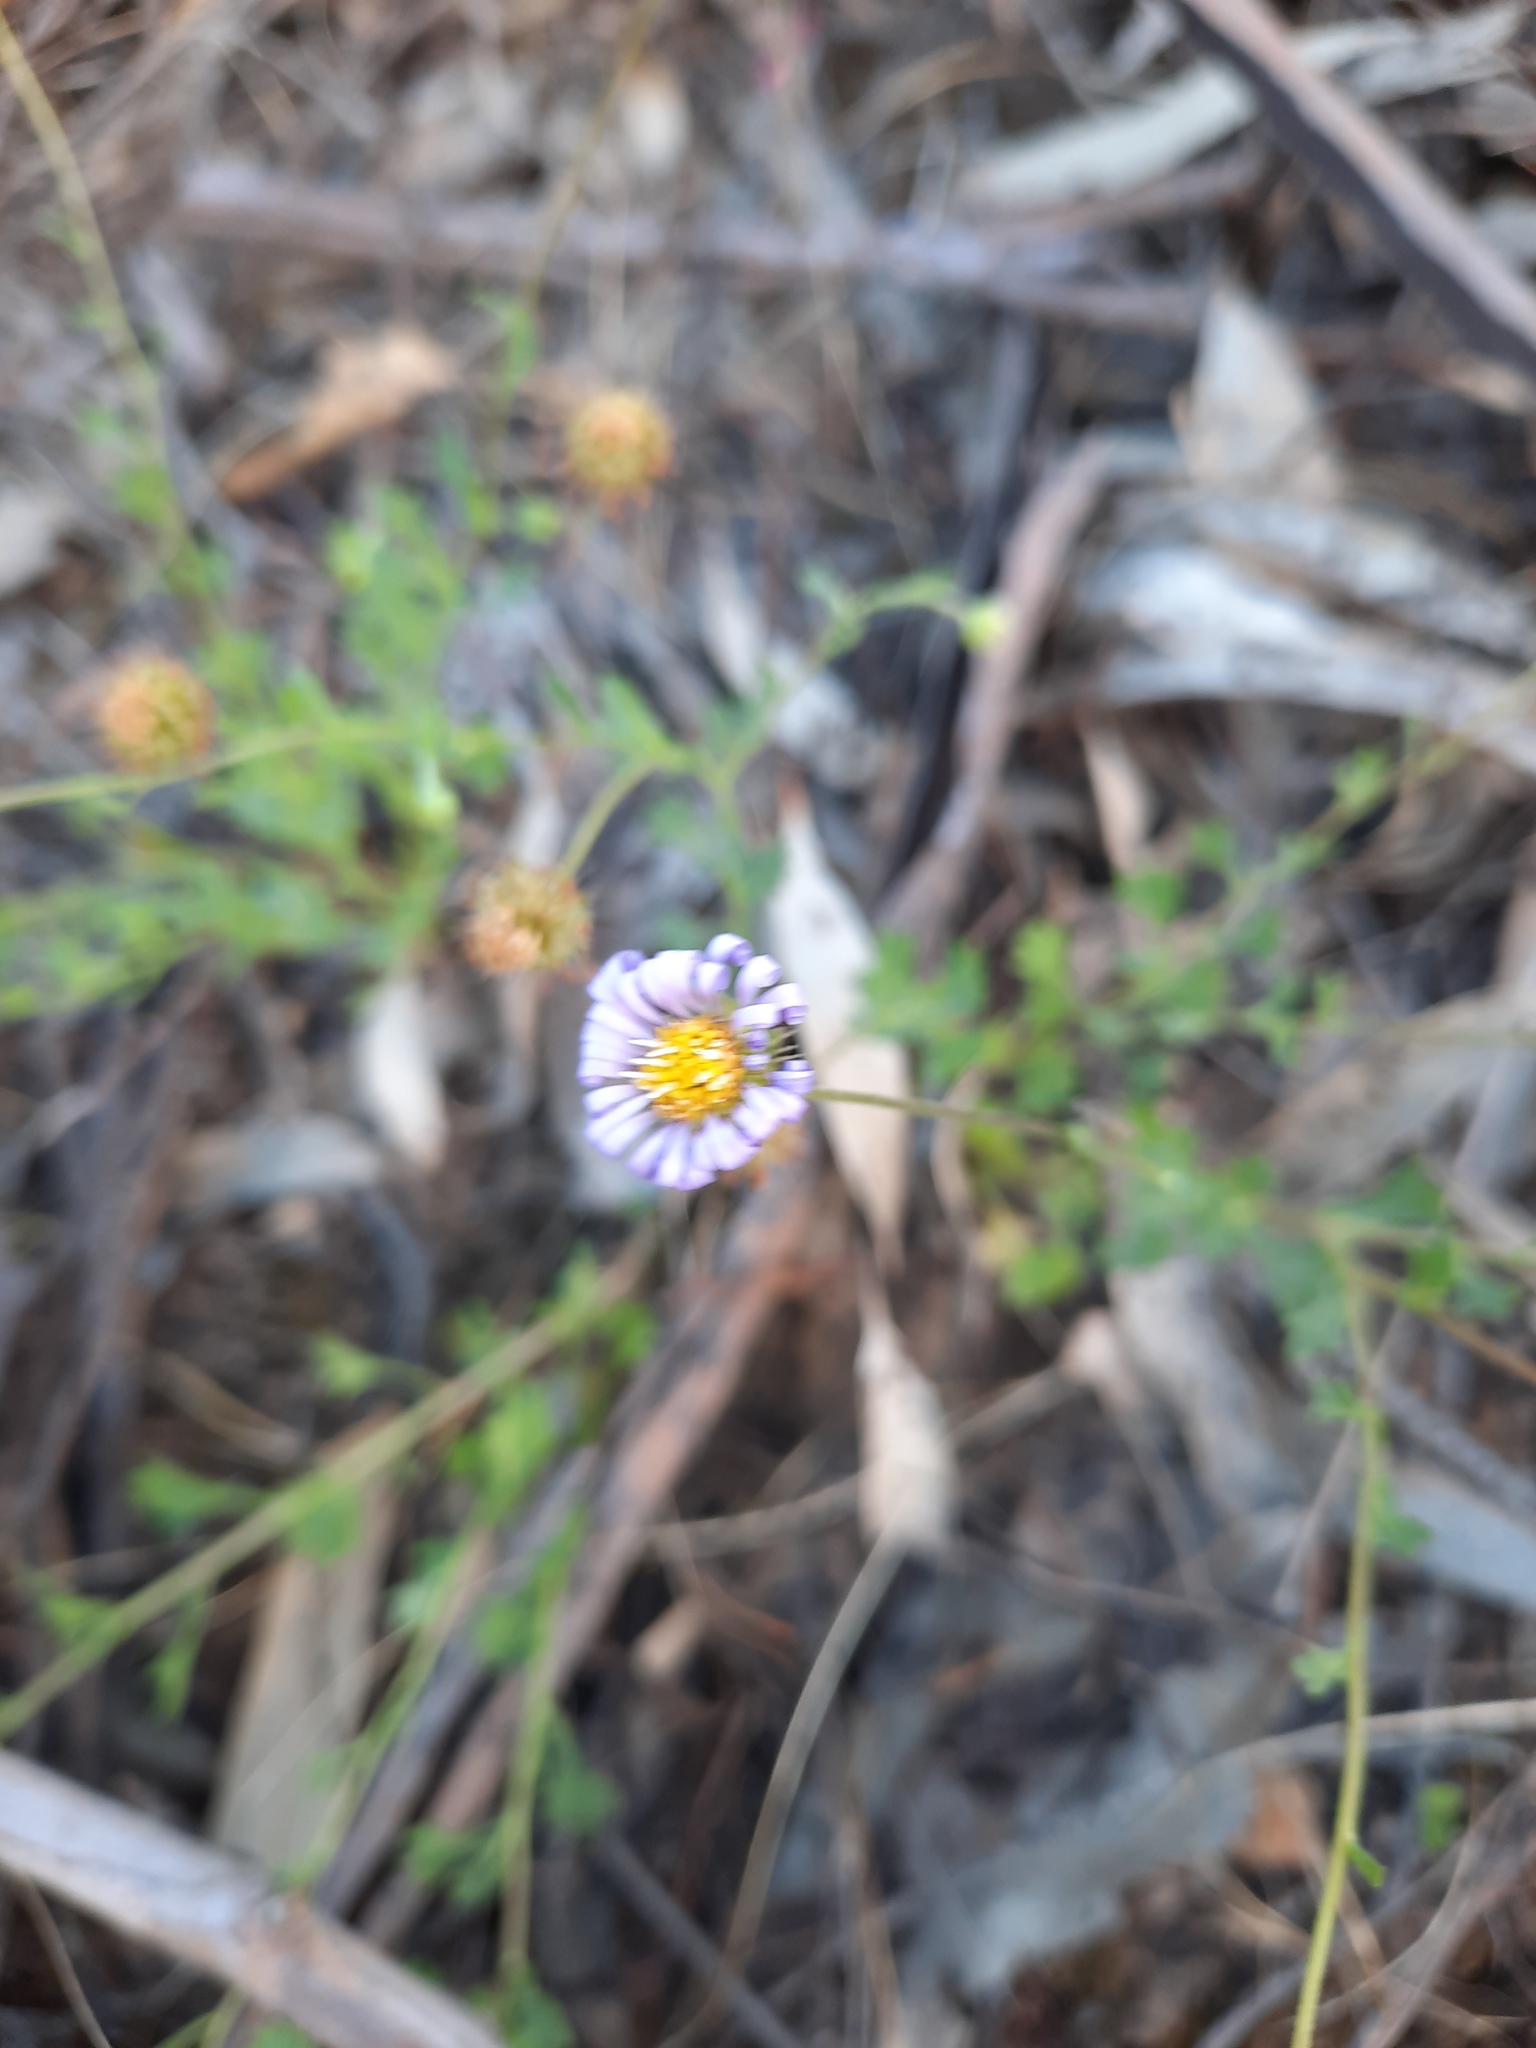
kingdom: Plantae
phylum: Tracheophyta
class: Magnoliopsida
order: Asterales
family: Asteraceae
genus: Calotis
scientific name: Calotis cuneifolia
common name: Bur-daisy
